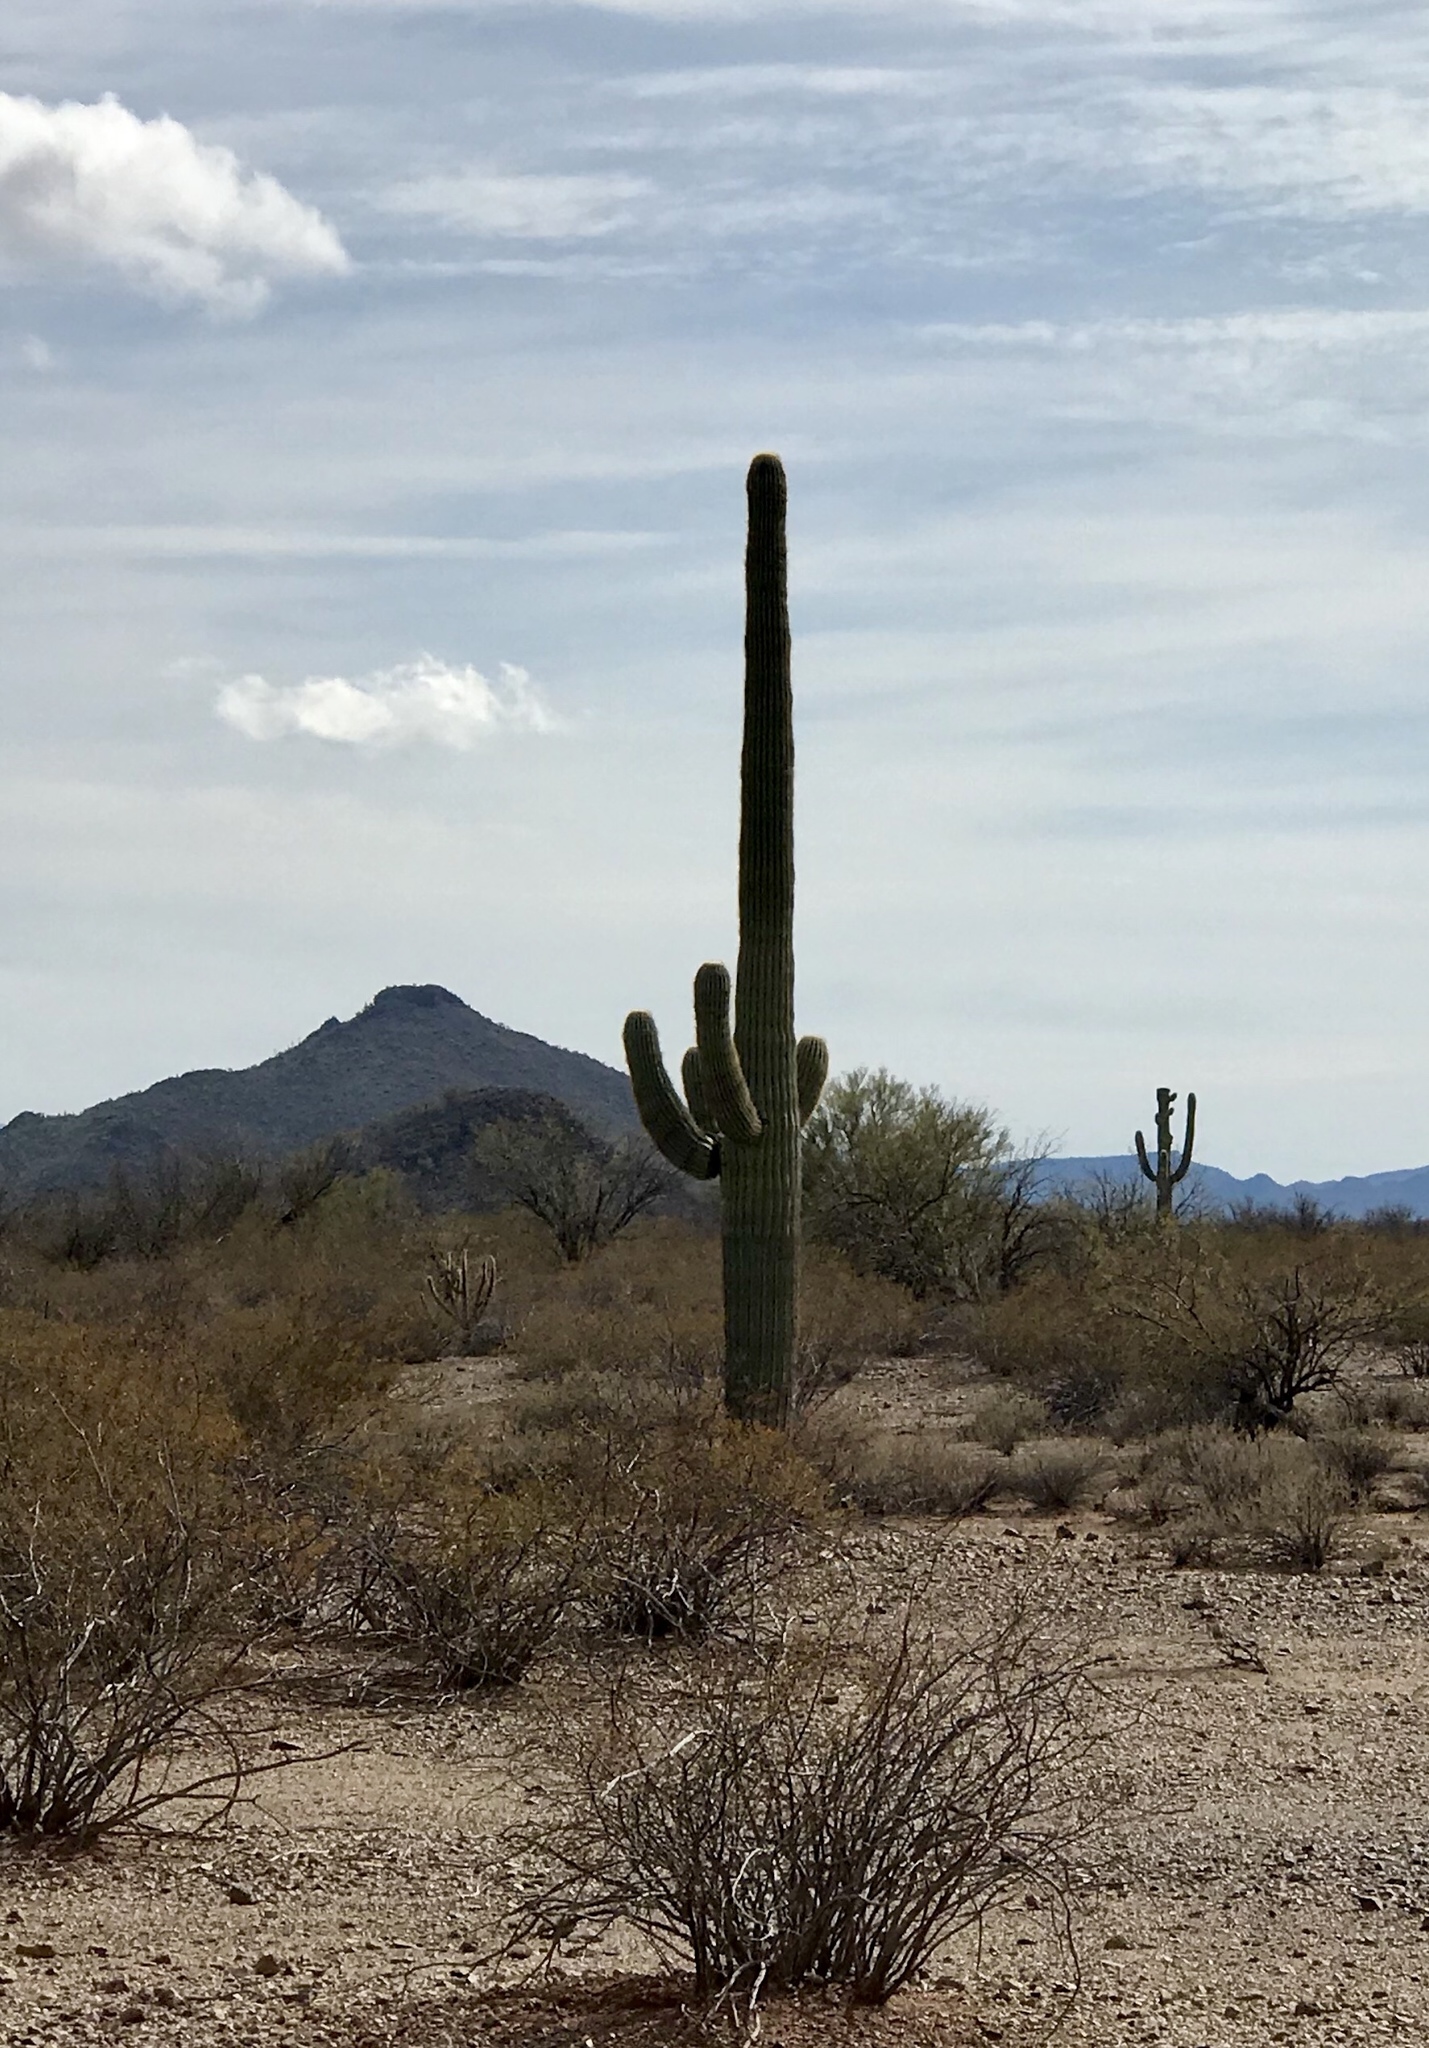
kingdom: Plantae
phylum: Tracheophyta
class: Magnoliopsida
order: Caryophyllales
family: Cactaceae
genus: Carnegiea
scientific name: Carnegiea gigantea
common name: Saguaro
